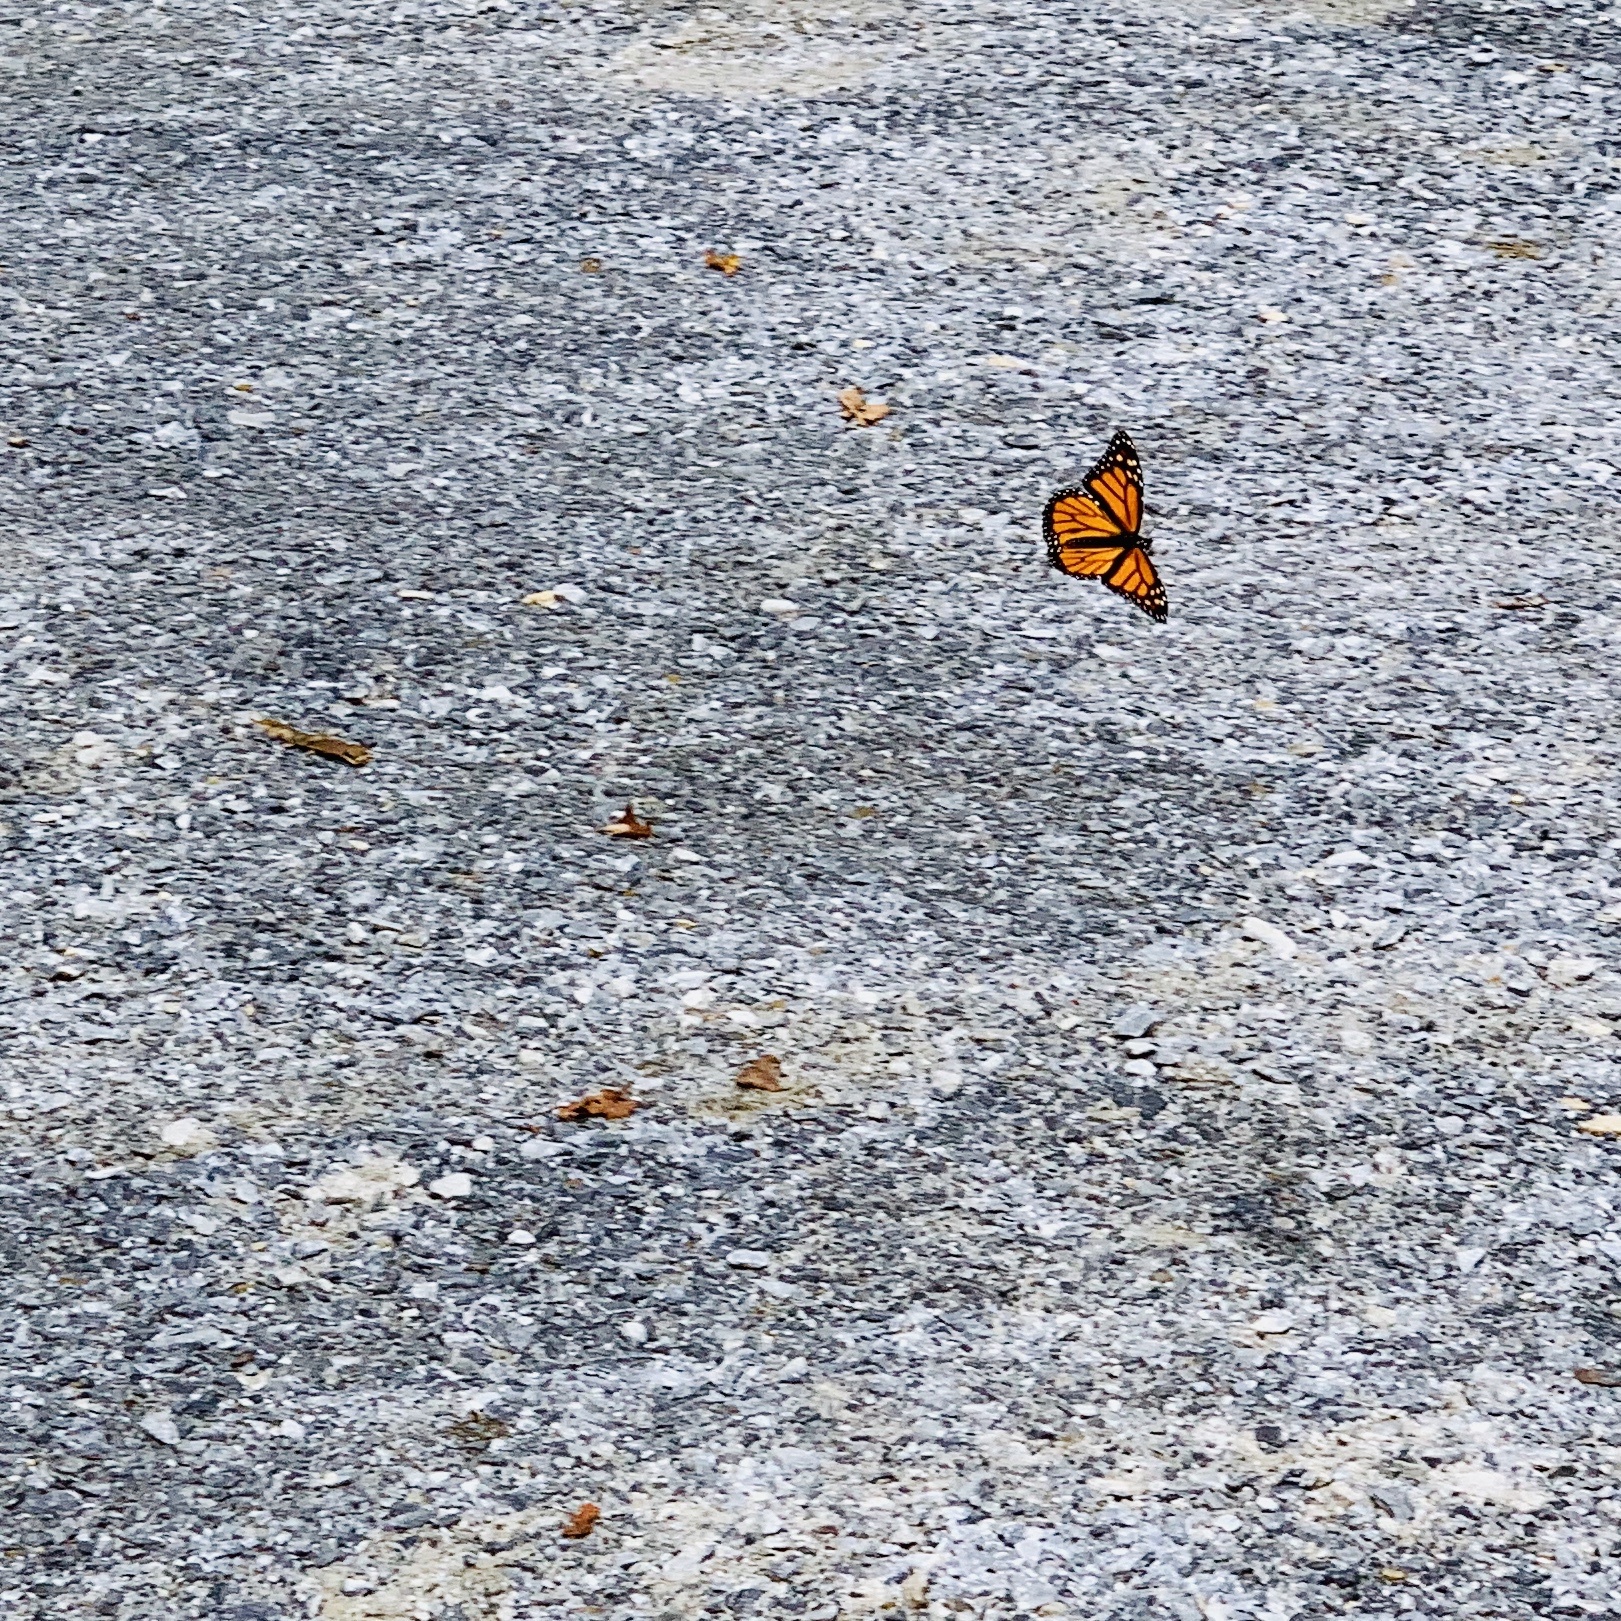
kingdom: Animalia
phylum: Arthropoda
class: Insecta
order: Lepidoptera
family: Nymphalidae
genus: Danaus
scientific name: Danaus plexippus
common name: Monarch
